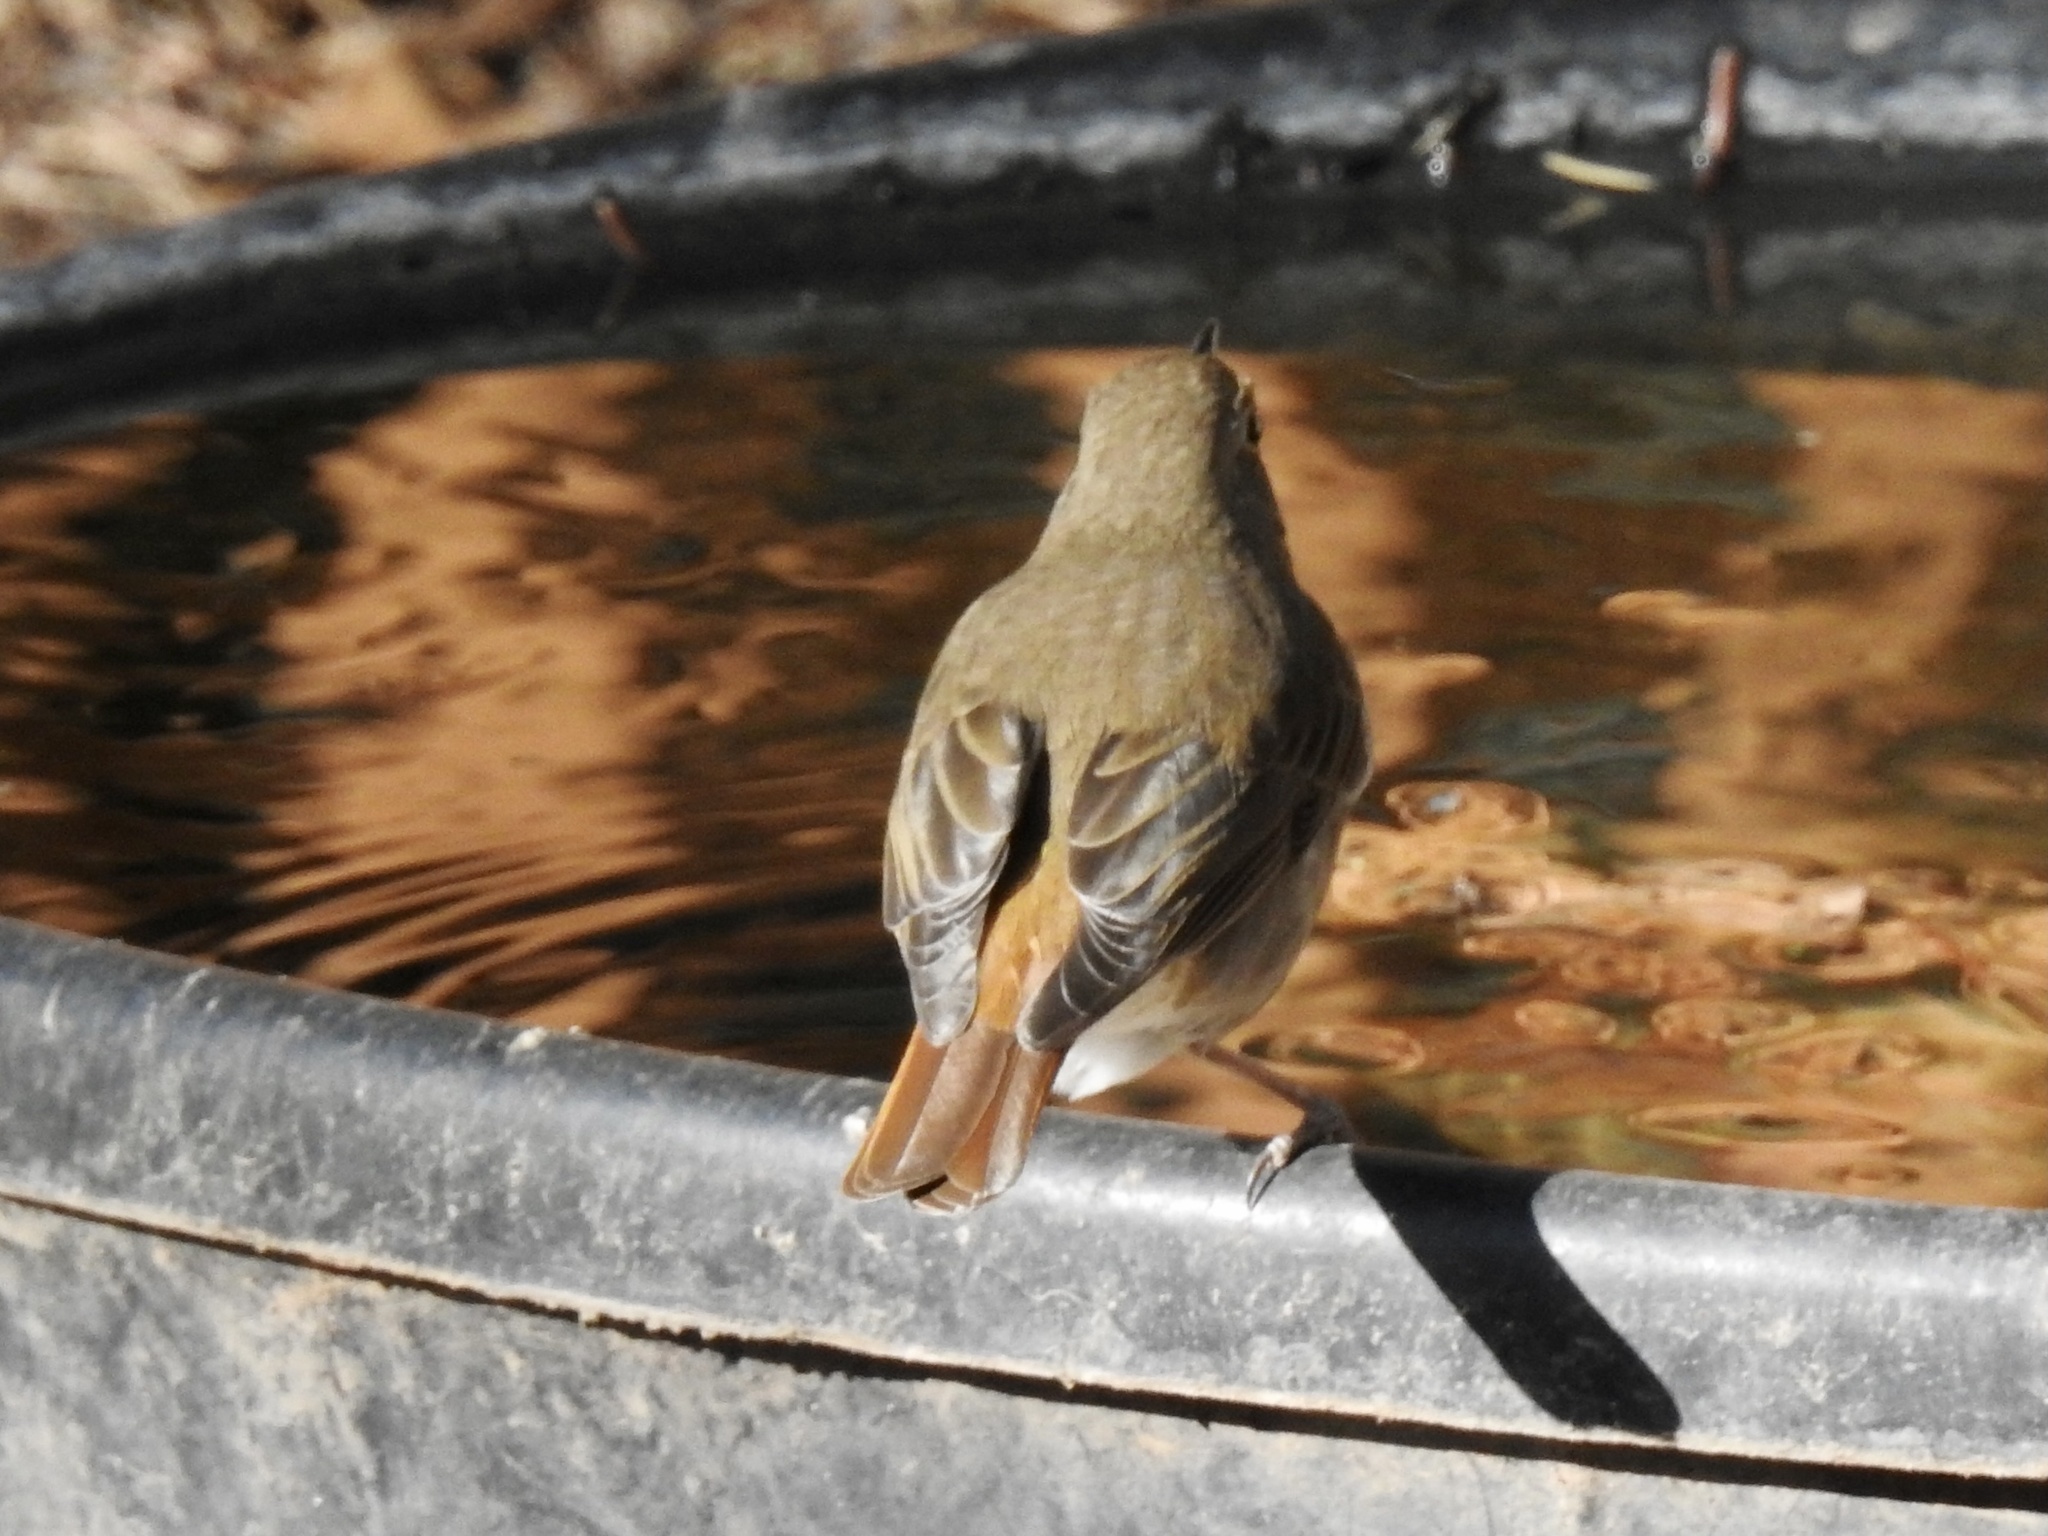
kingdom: Animalia
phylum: Chordata
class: Aves
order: Passeriformes
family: Turdidae
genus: Catharus
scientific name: Catharus guttatus
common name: Hermit thrush
